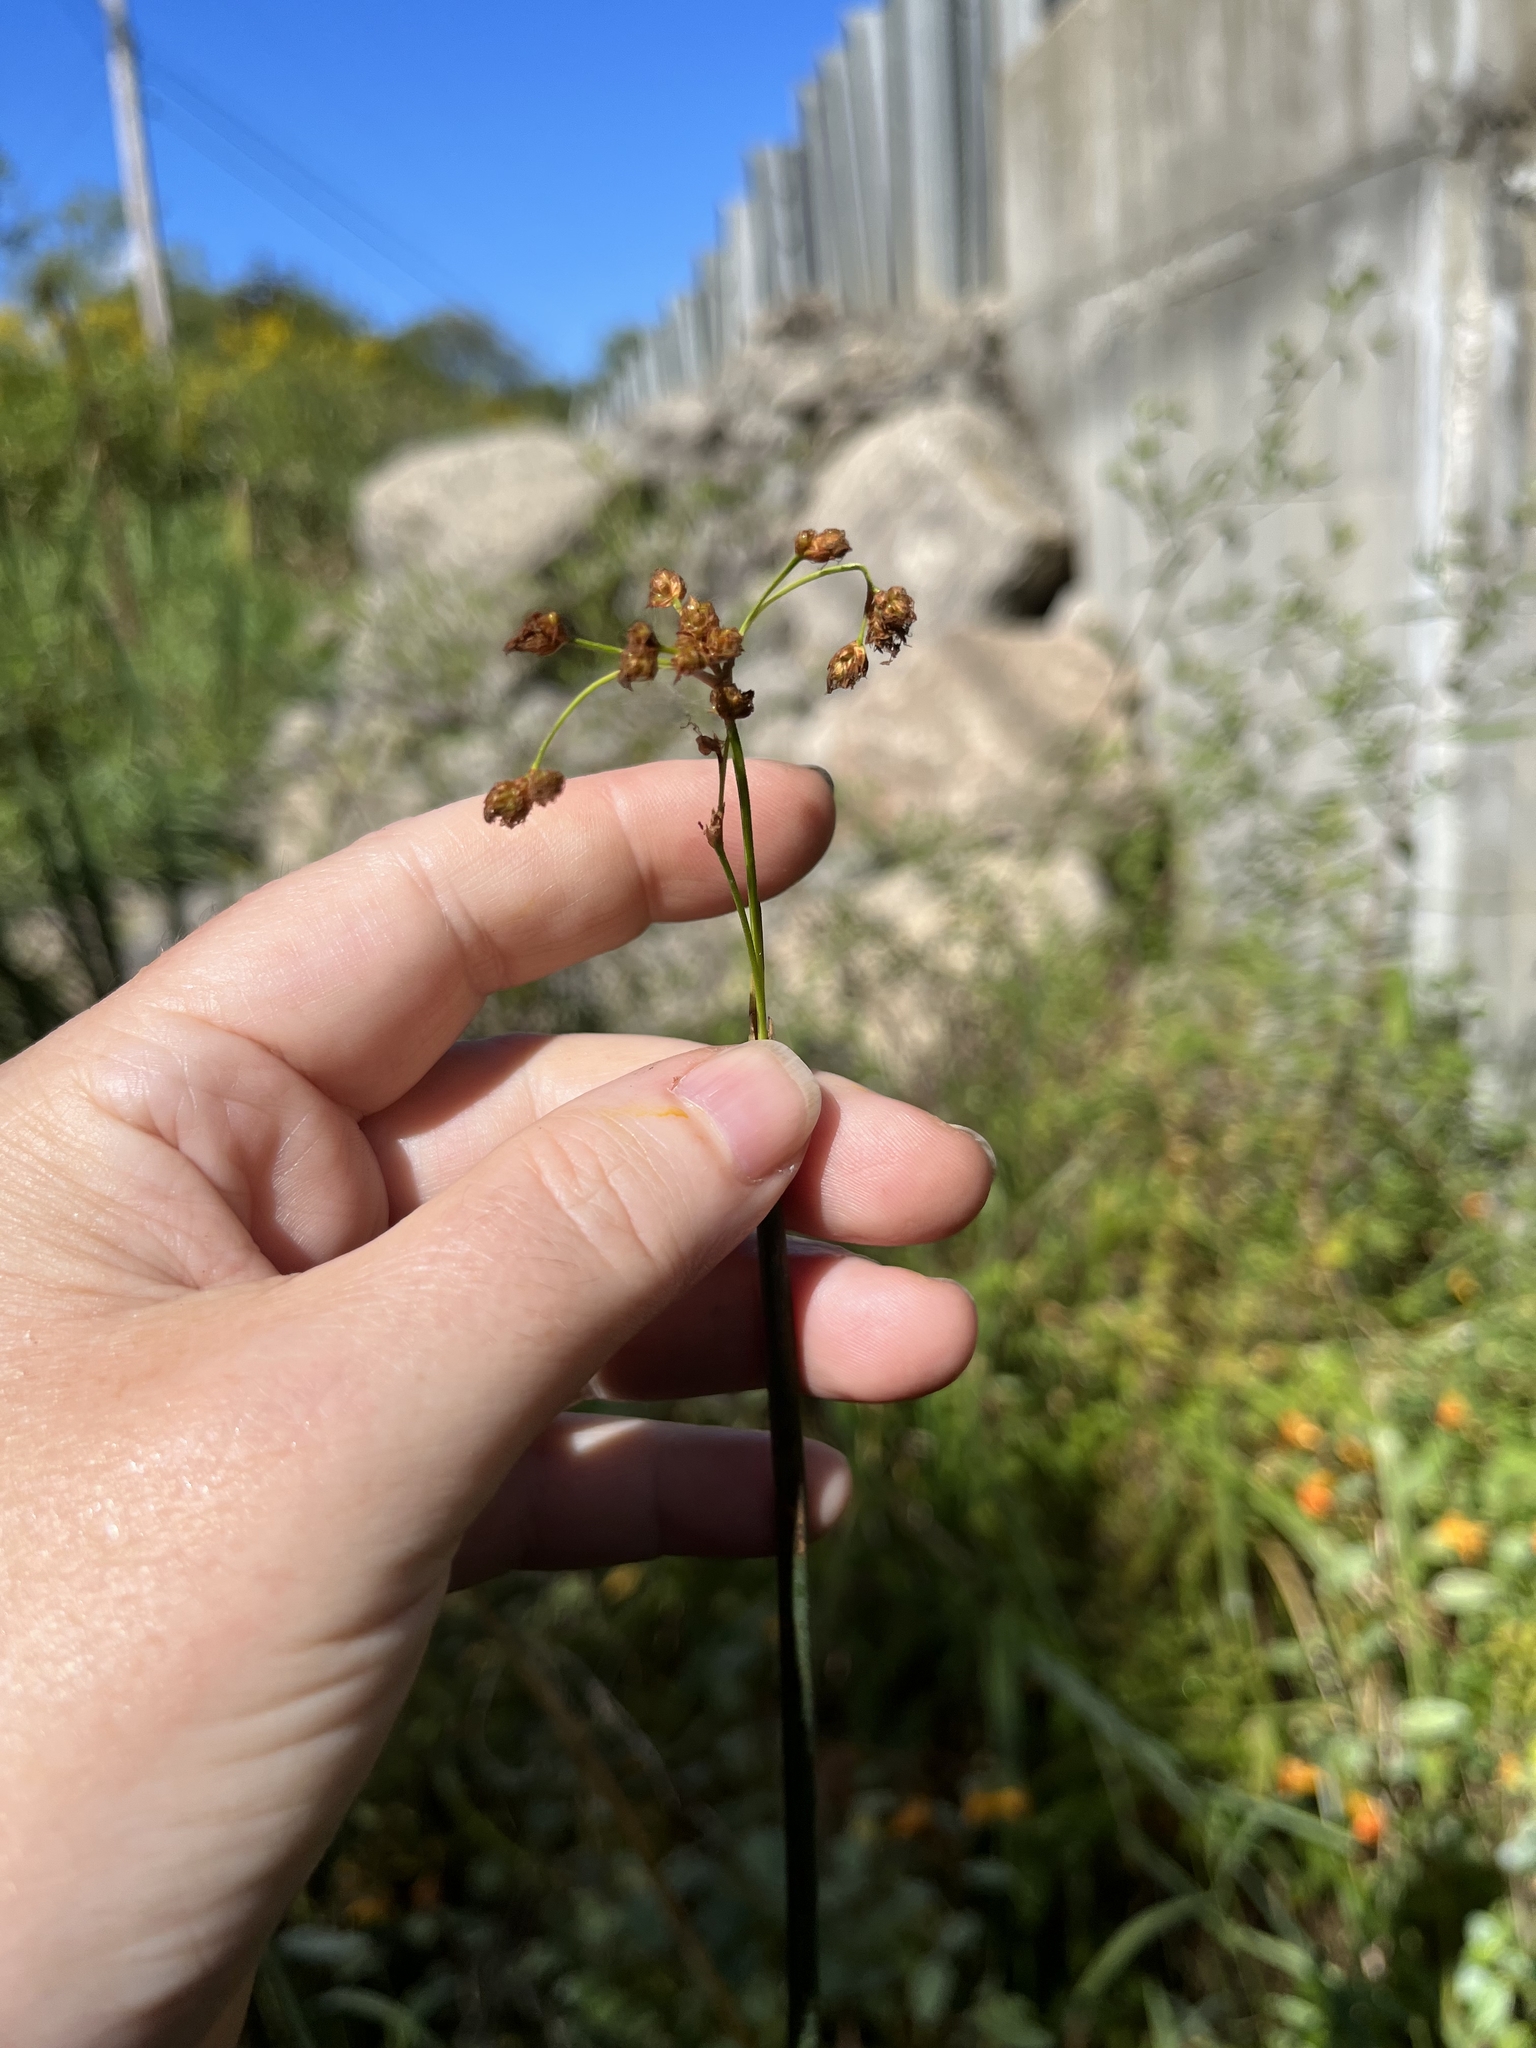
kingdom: Plantae
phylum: Tracheophyta
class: Liliopsida
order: Poales
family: Cyperaceae
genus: Schoenoplectus
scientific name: Schoenoplectus tabernaemontani
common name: Grey club-rush
